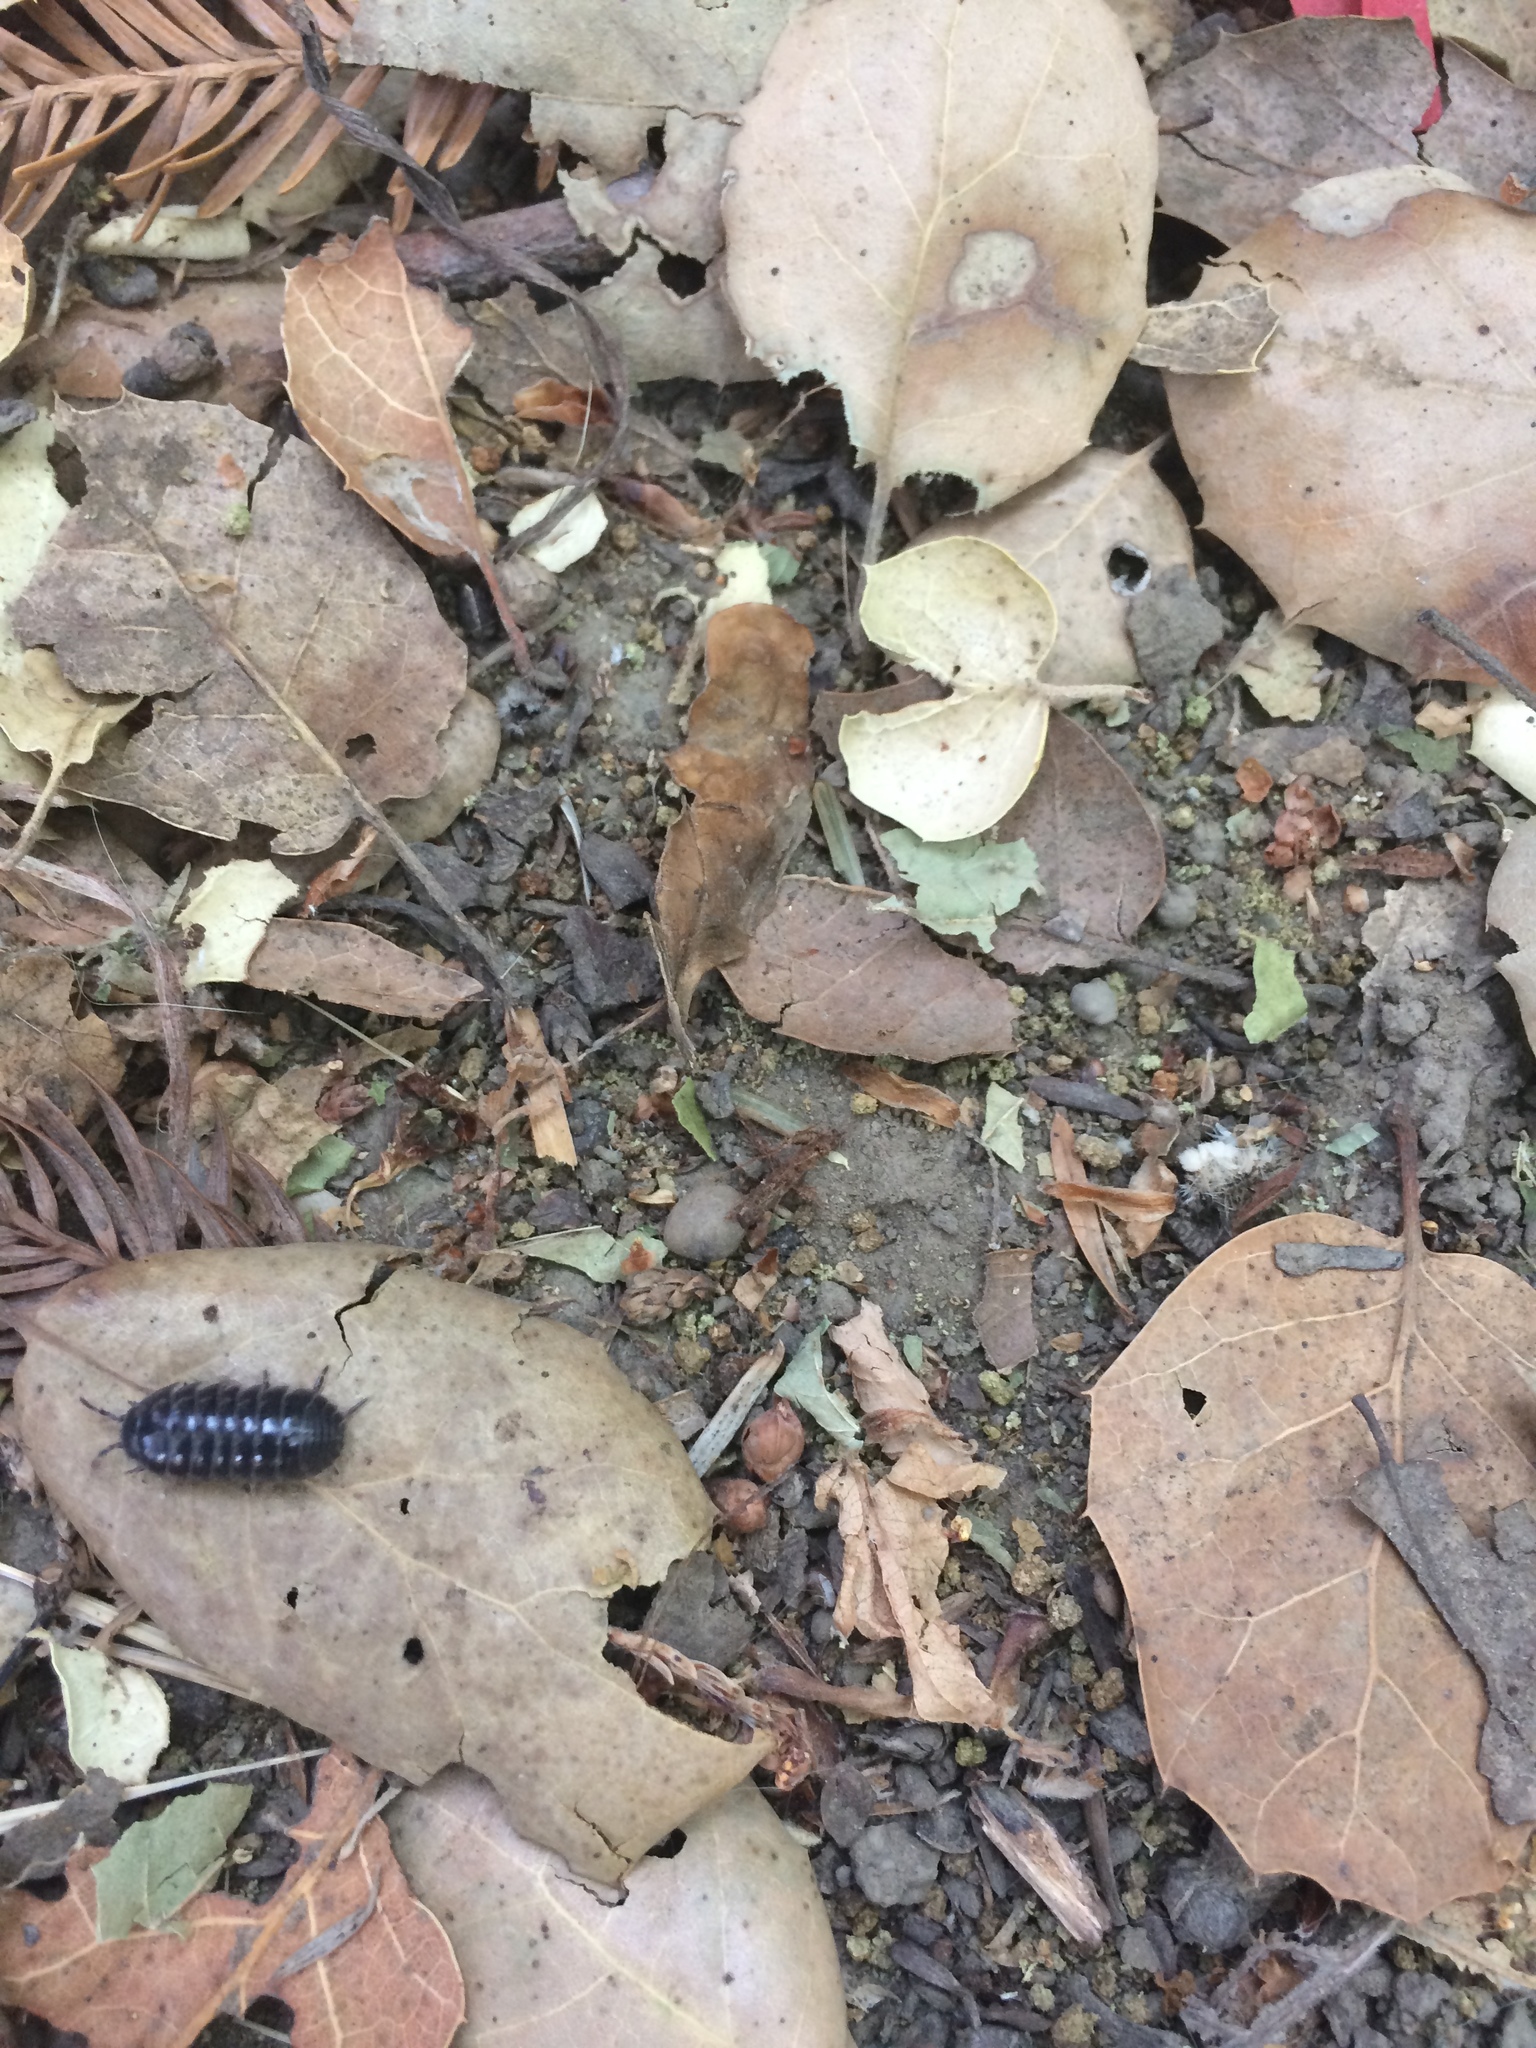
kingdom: Animalia
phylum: Arthropoda
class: Malacostraca
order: Isopoda
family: Armadillidiidae
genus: Armadillidium
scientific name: Armadillidium vulgare
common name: Common pill woodlouse
